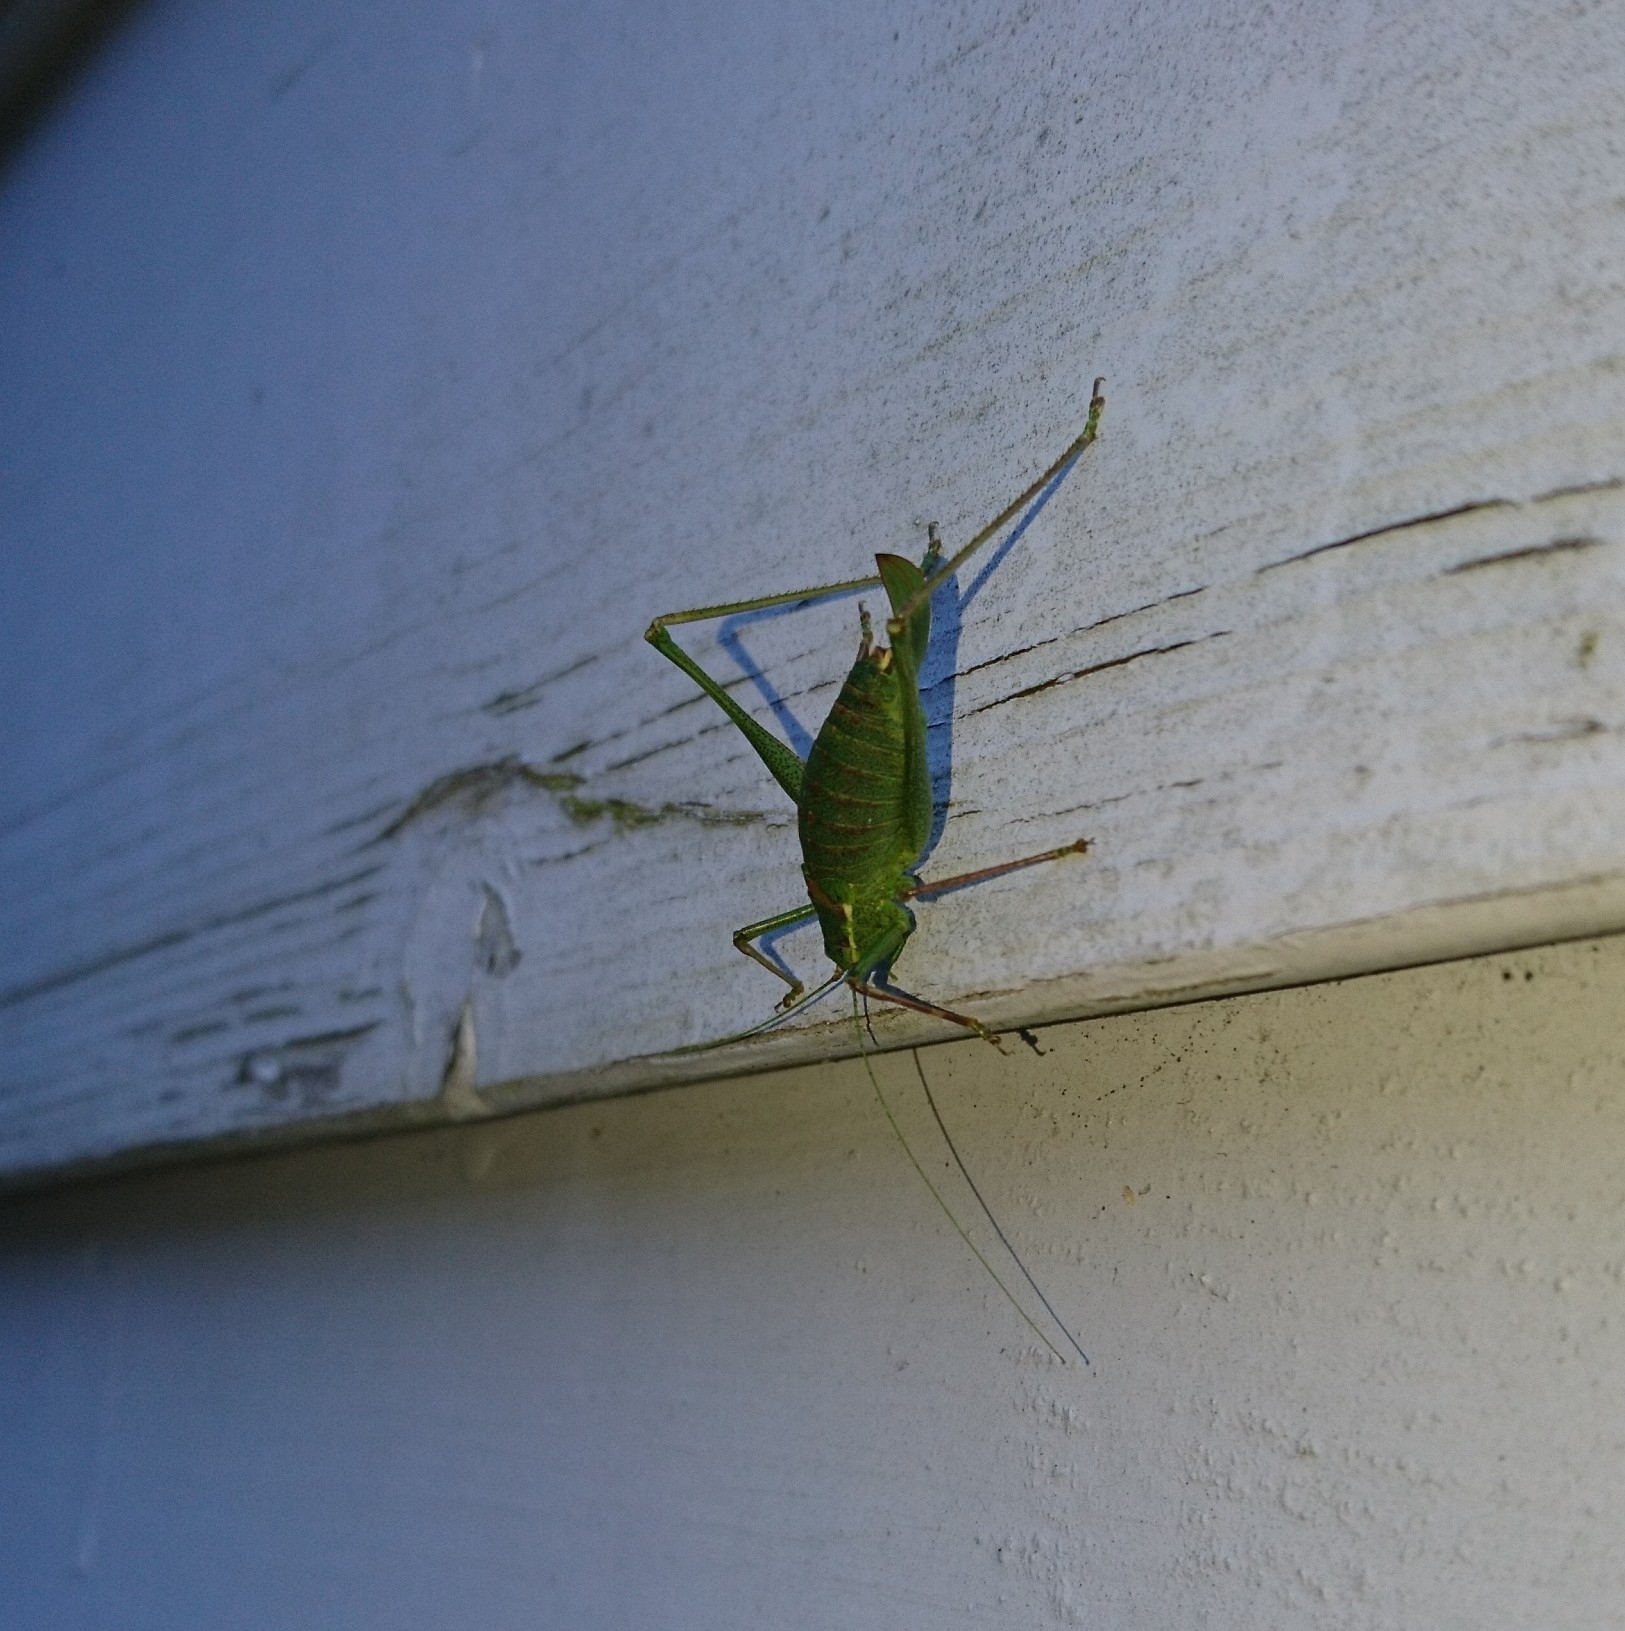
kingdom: Animalia
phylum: Arthropoda
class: Insecta
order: Orthoptera
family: Tettigoniidae
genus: Leptophyes
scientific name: Leptophyes punctatissima
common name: Speckled bush-cricket
